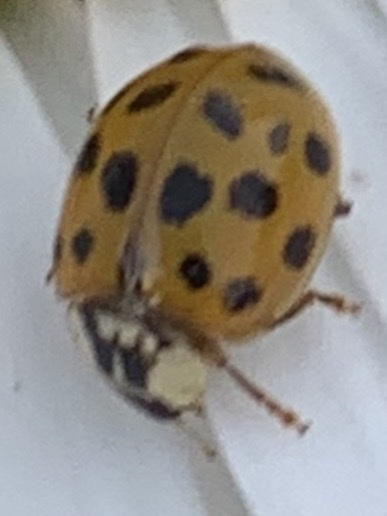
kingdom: Animalia
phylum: Arthropoda
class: Insecta
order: Coleoptera
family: Coccinellidae
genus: Harmonia
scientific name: Harmonia axyridis
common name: Harlequin ladybird
